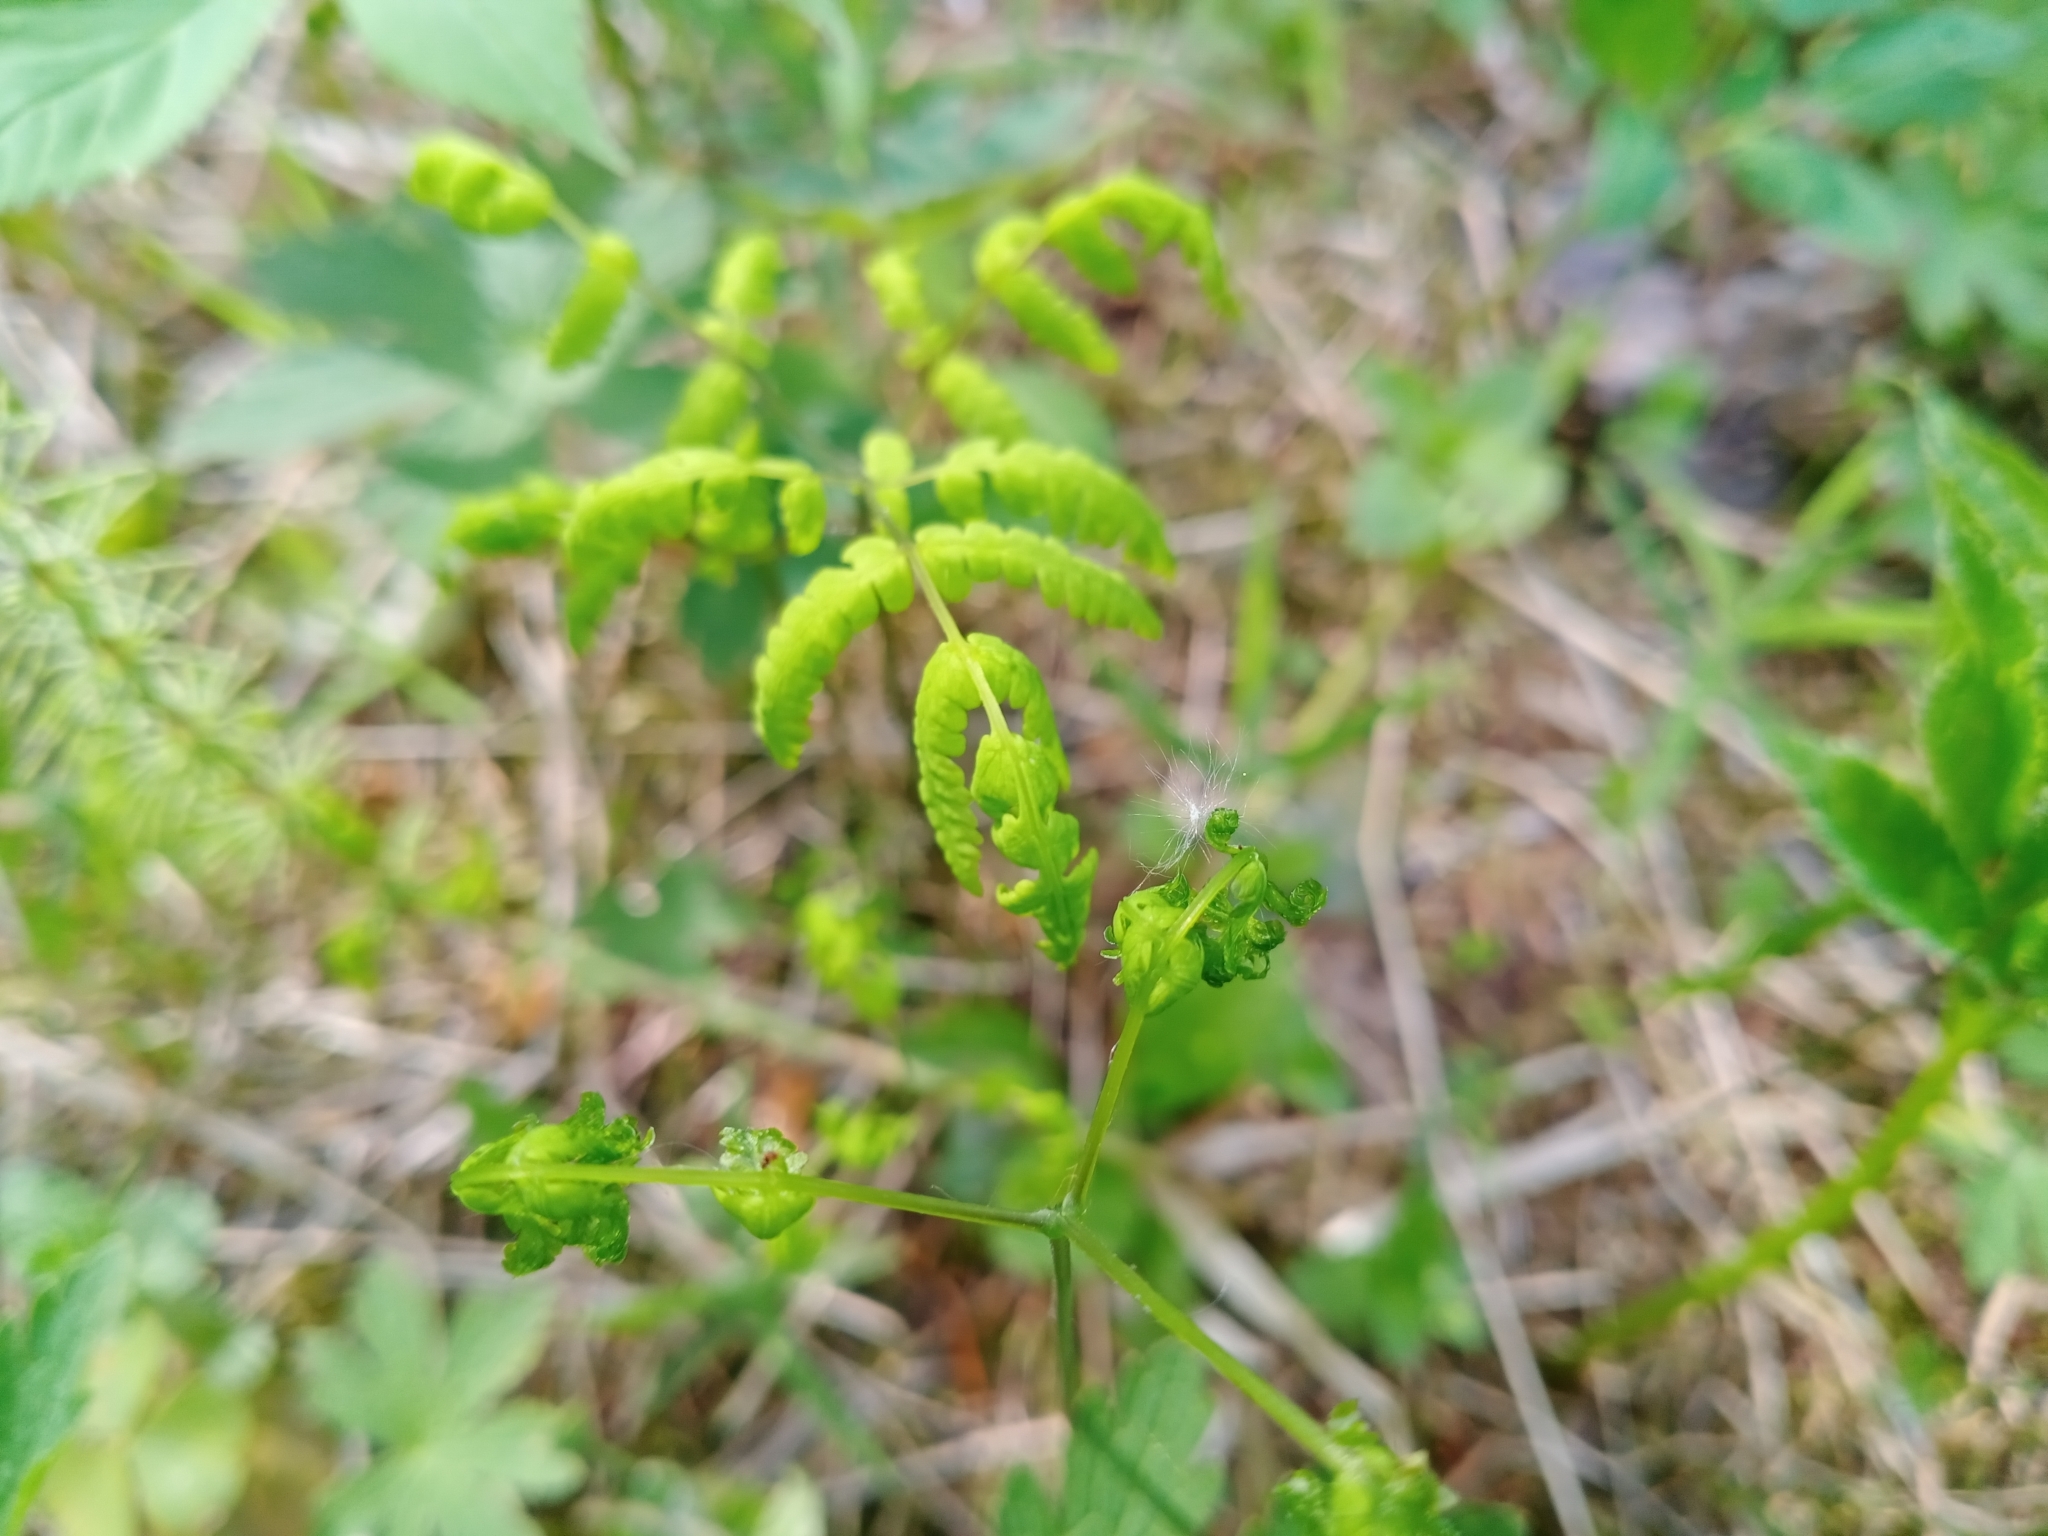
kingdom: Plantae
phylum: Tracheophyta
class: Polypodiopsida
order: Polypodiales
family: Cystopteridaceae
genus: Gymnocarpium
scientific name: Gymnocarpium dryopteris
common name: Oak fern
